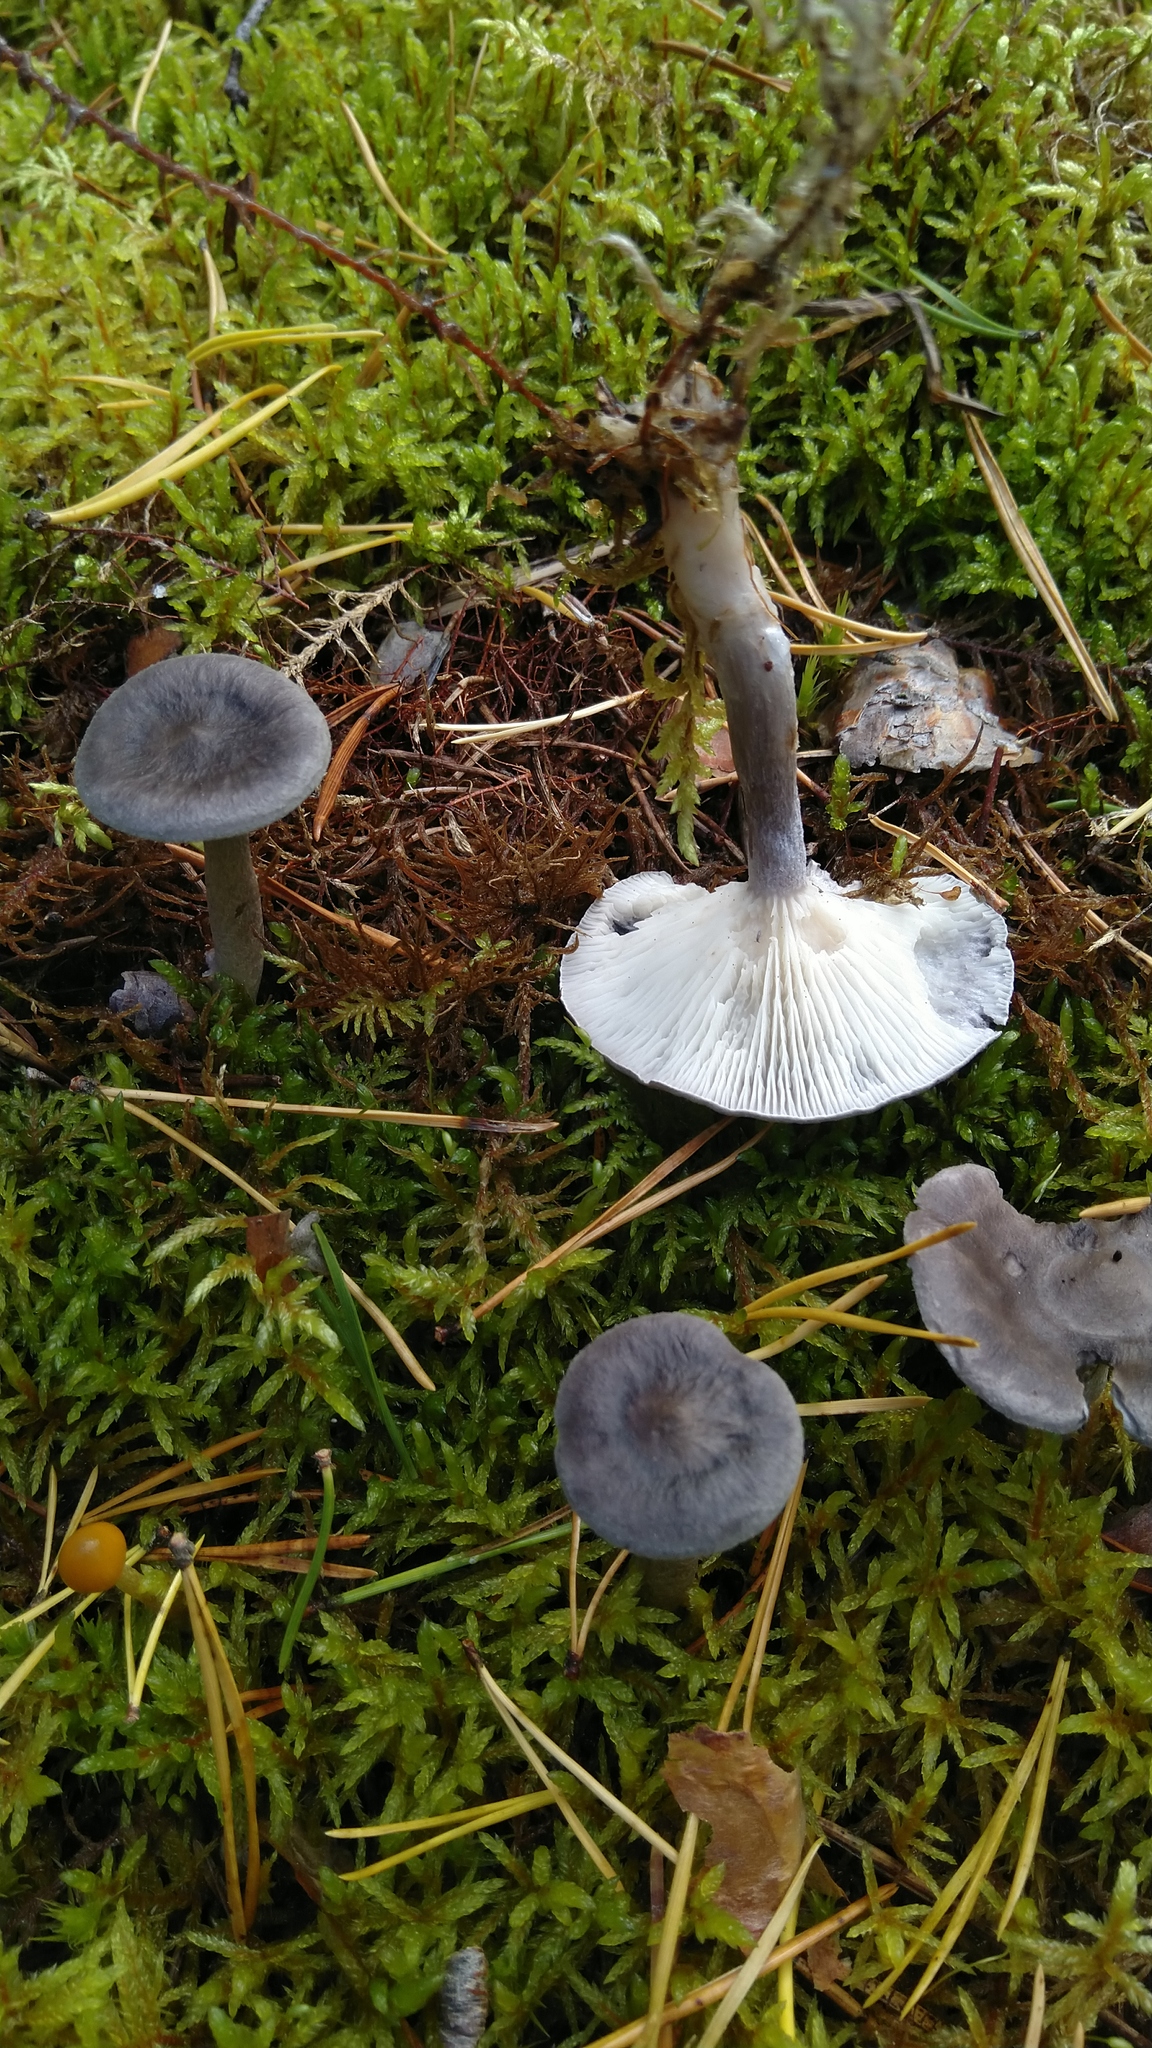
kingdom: Fungi
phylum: Basidiomycota
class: Agaricomycetes
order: Agaricales
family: Hygrophoraceae
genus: Cantharellula
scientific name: Cantharellula umbonata
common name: The humpback
